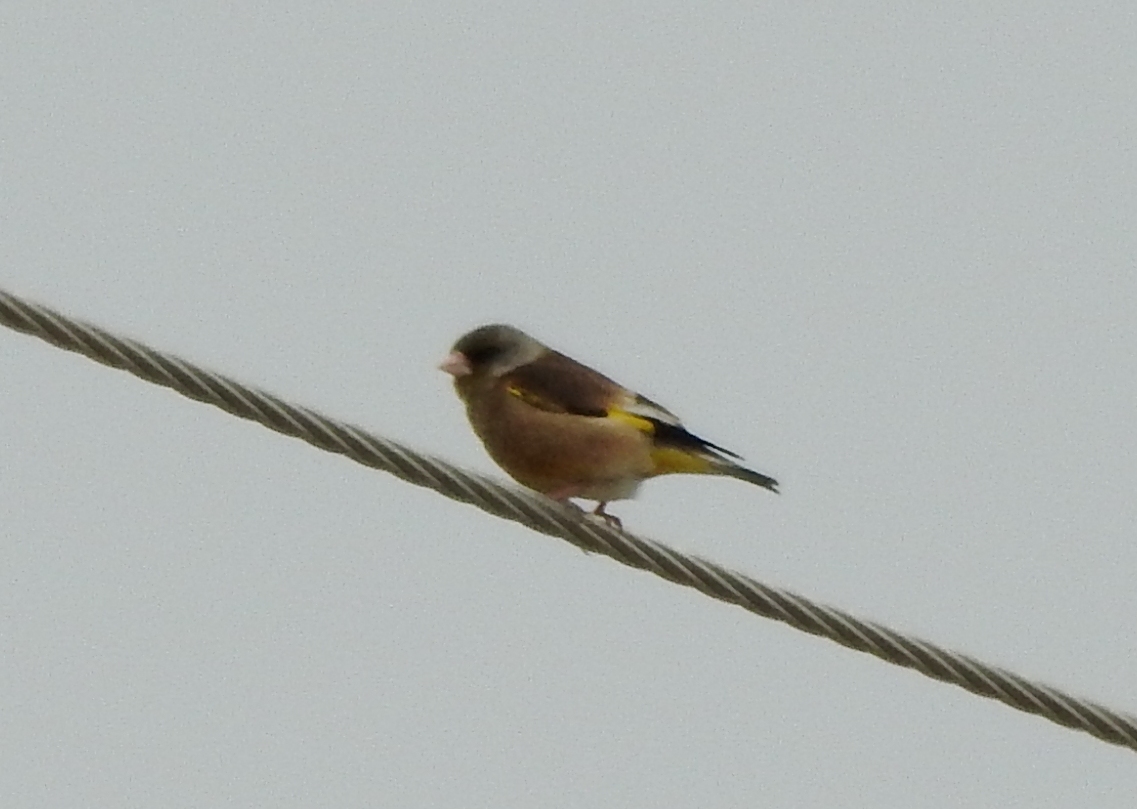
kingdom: Plantae
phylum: Tracheophyta
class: Liliopsida
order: Poales
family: Poaceae
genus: Chloris
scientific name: Chloris sinica
